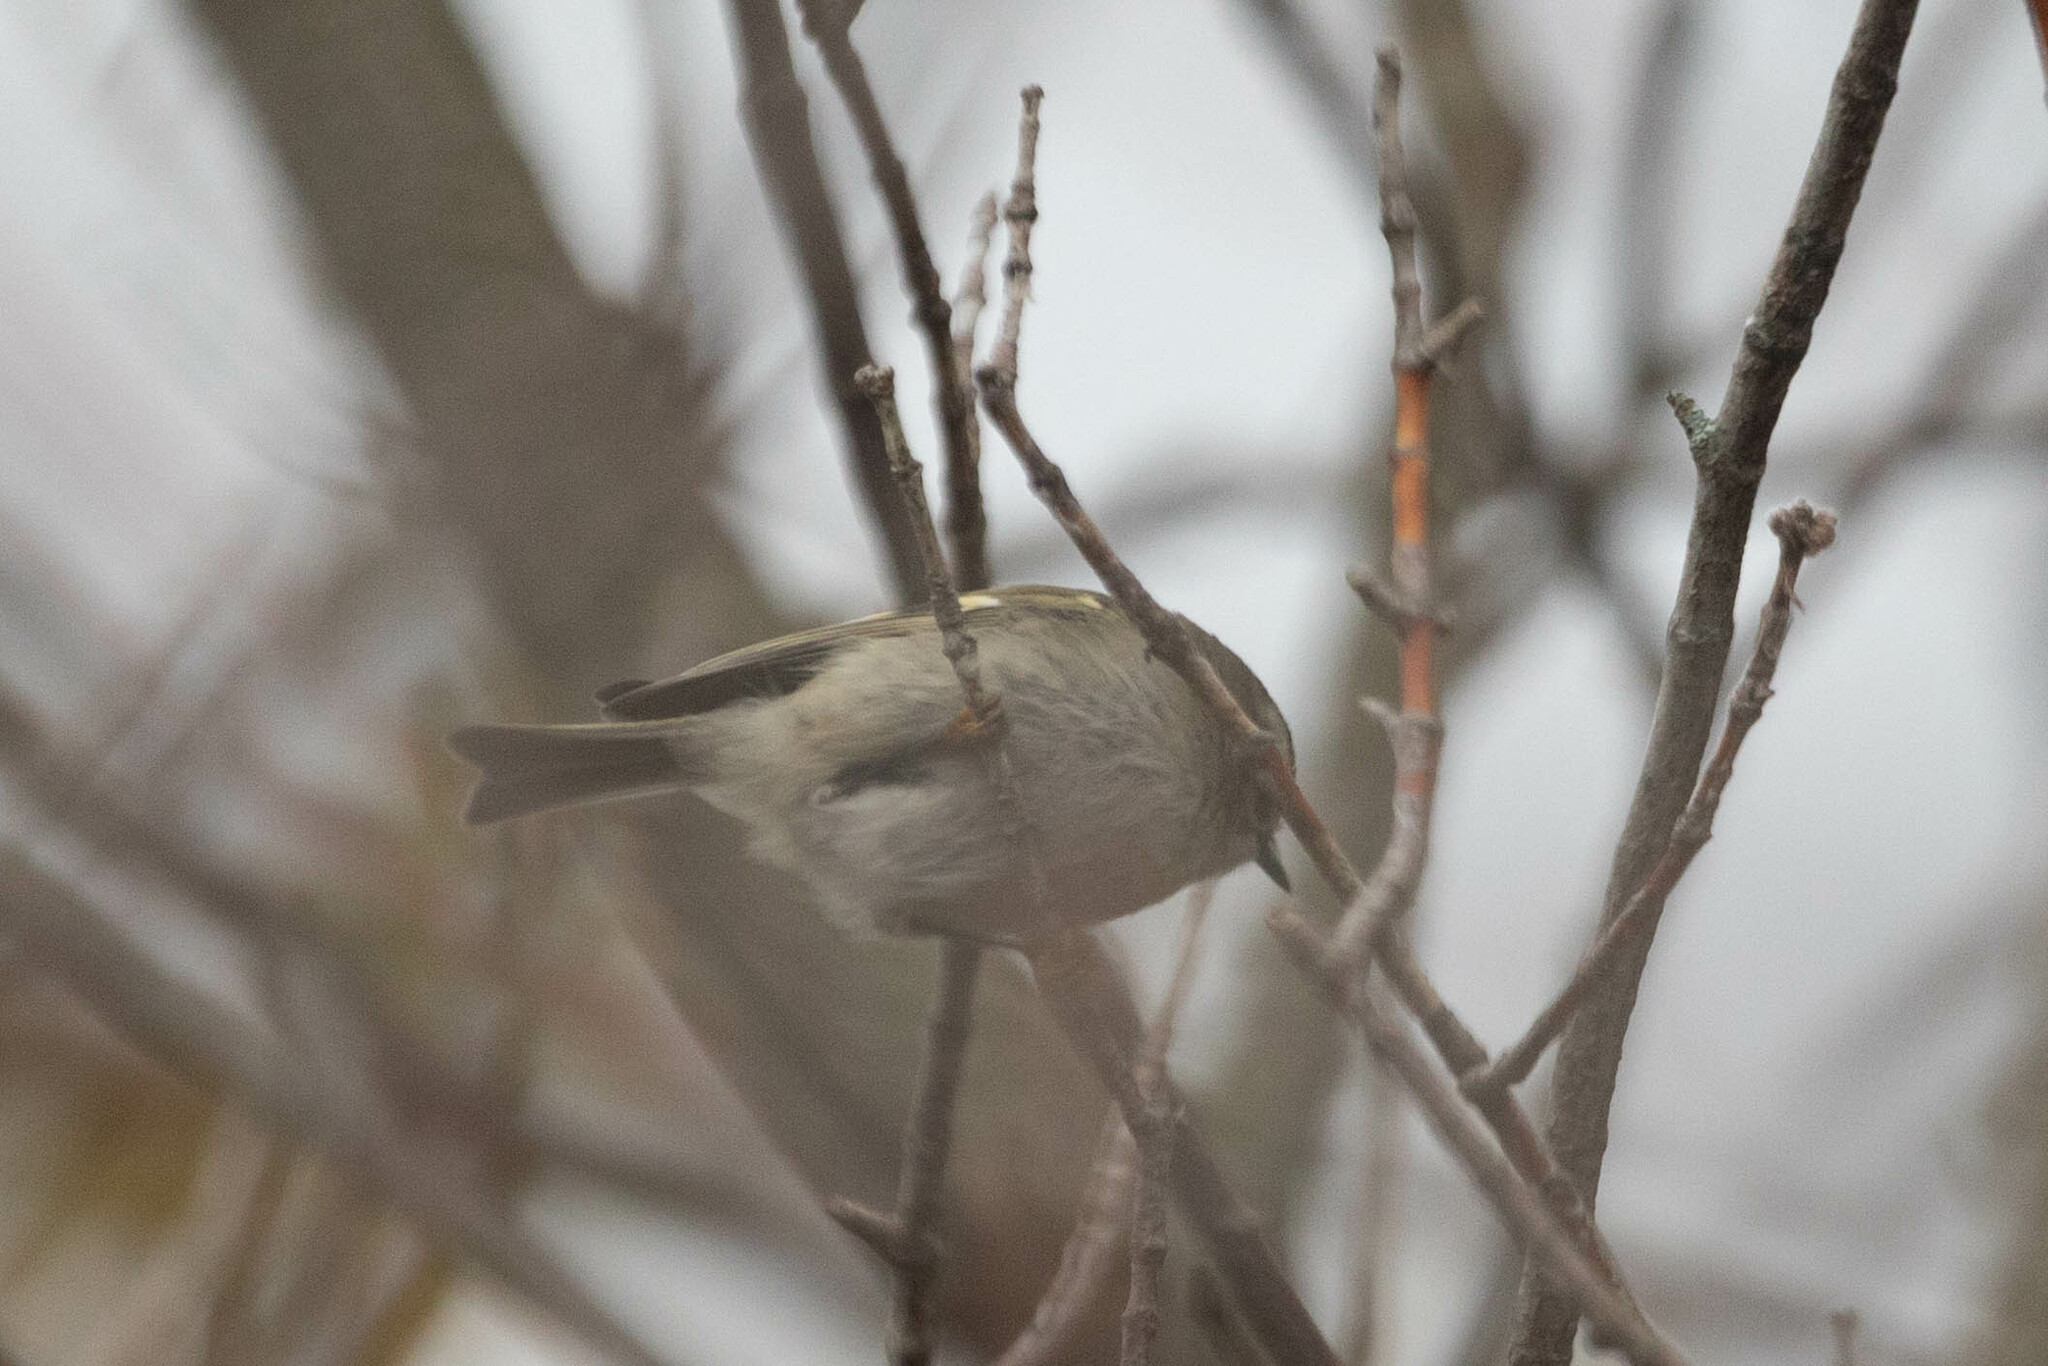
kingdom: Animalia
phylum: Chordata
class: Aves
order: Passeriformes
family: Regulidae
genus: Regulus
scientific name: Regulus satrapa
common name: Golden-crowned kinglet
